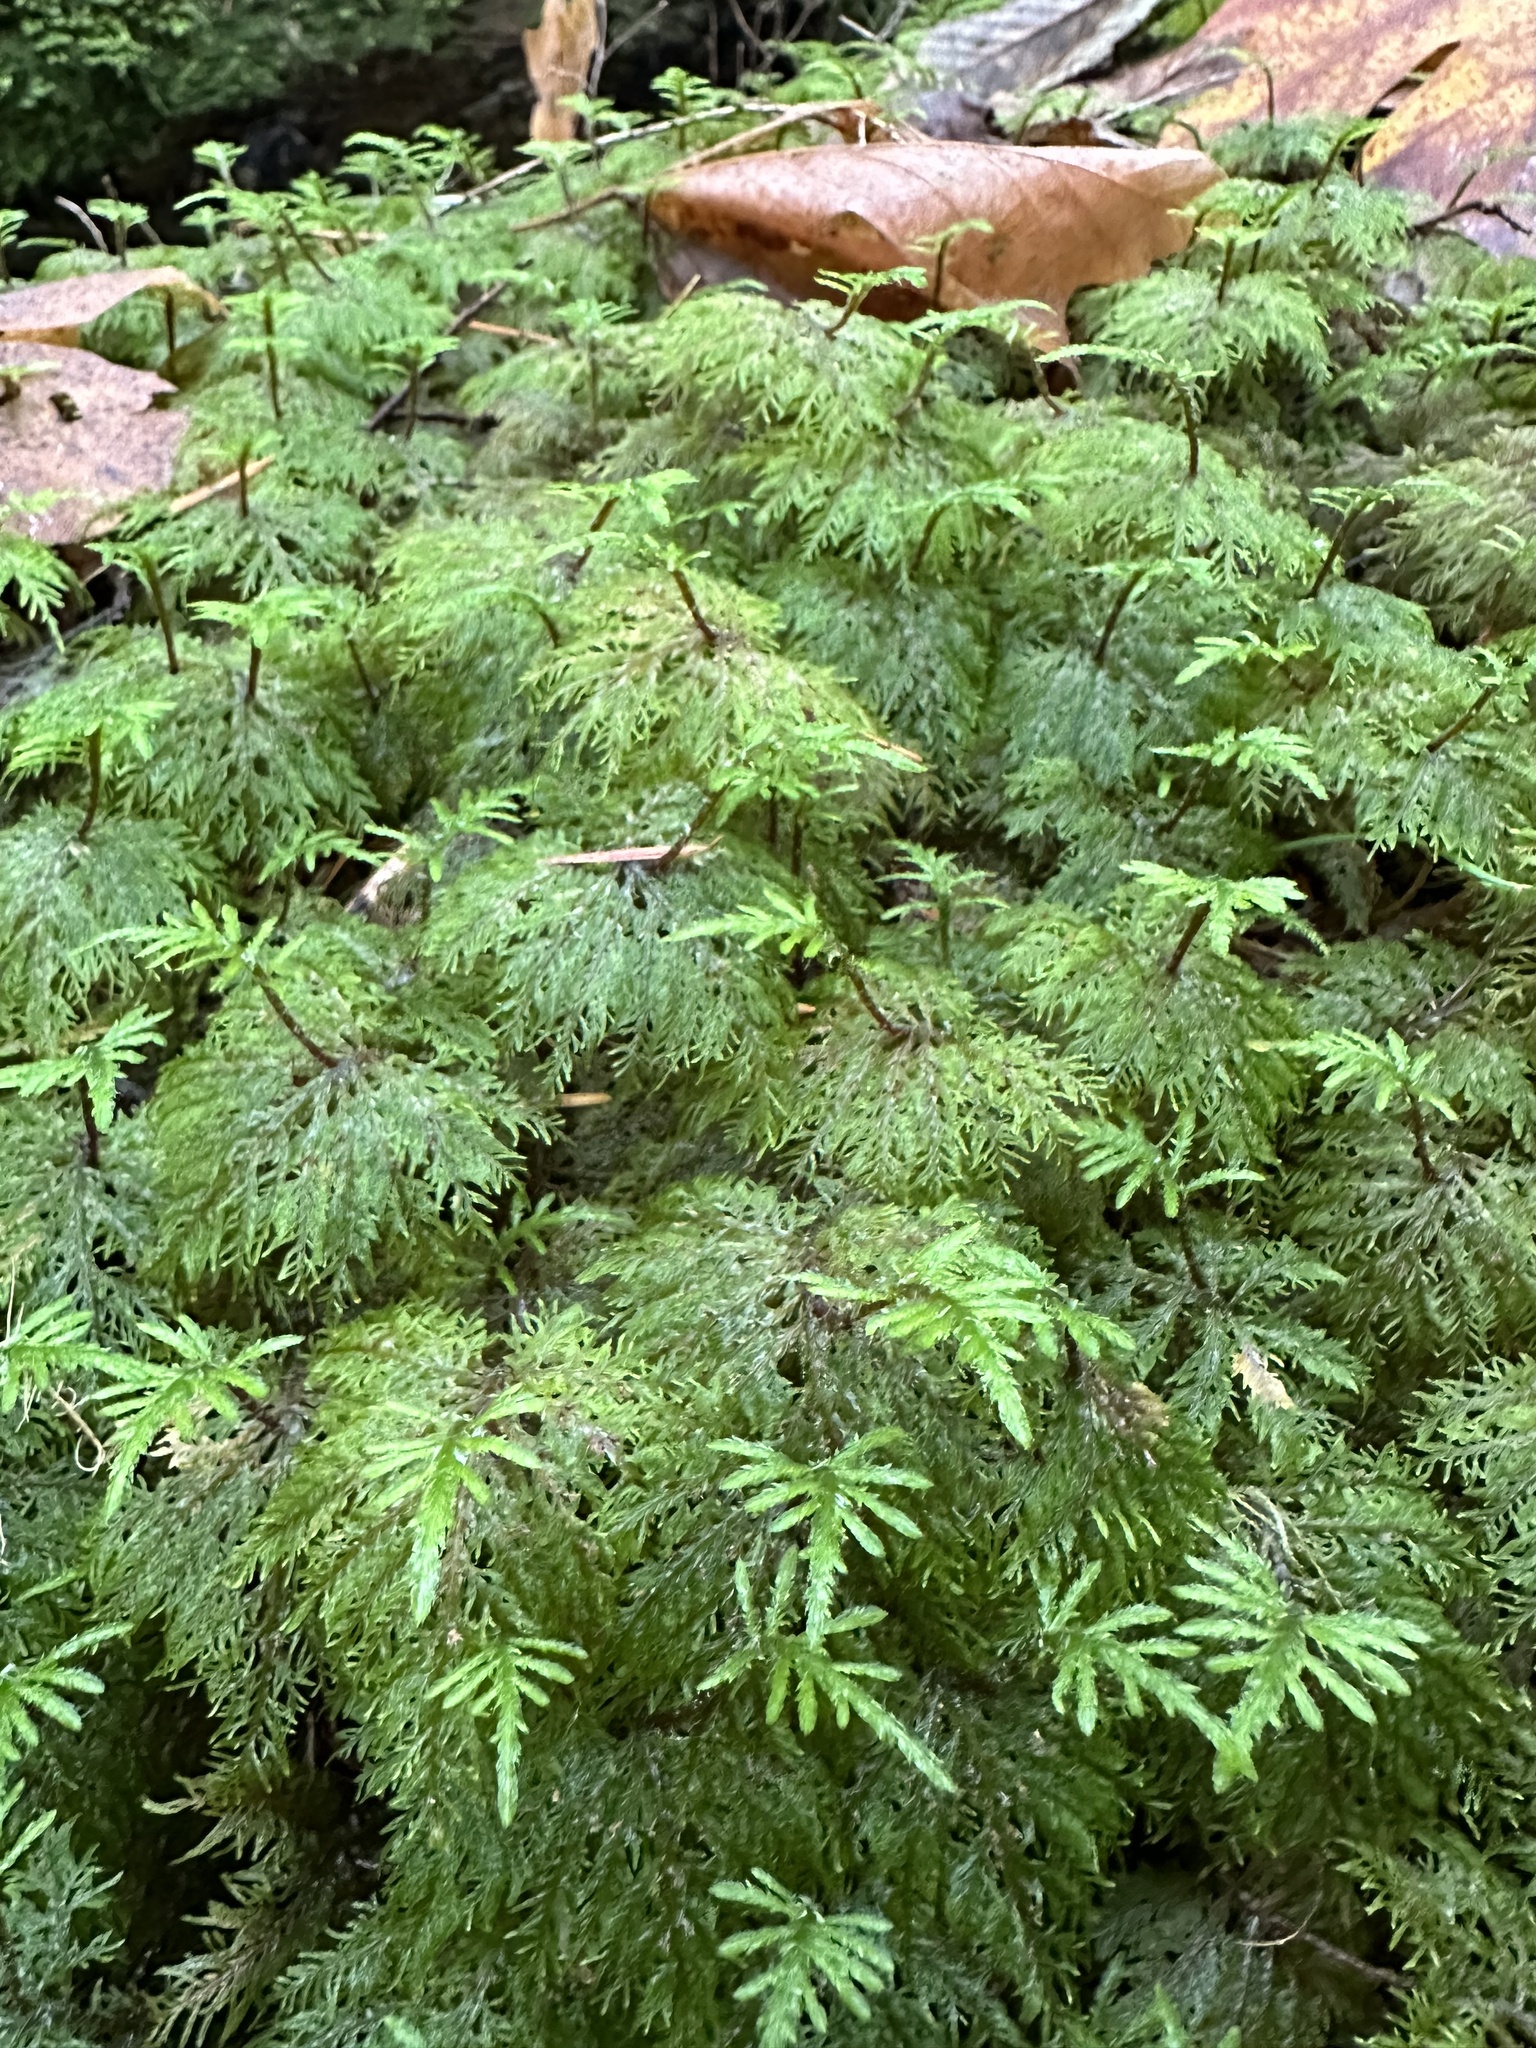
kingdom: Plantae
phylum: Bryophyta
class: Bryopsida
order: Hypnales
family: Hylocomiaceae
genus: Hylocomium
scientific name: Hylocomium splendens
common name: Stairstep moss
